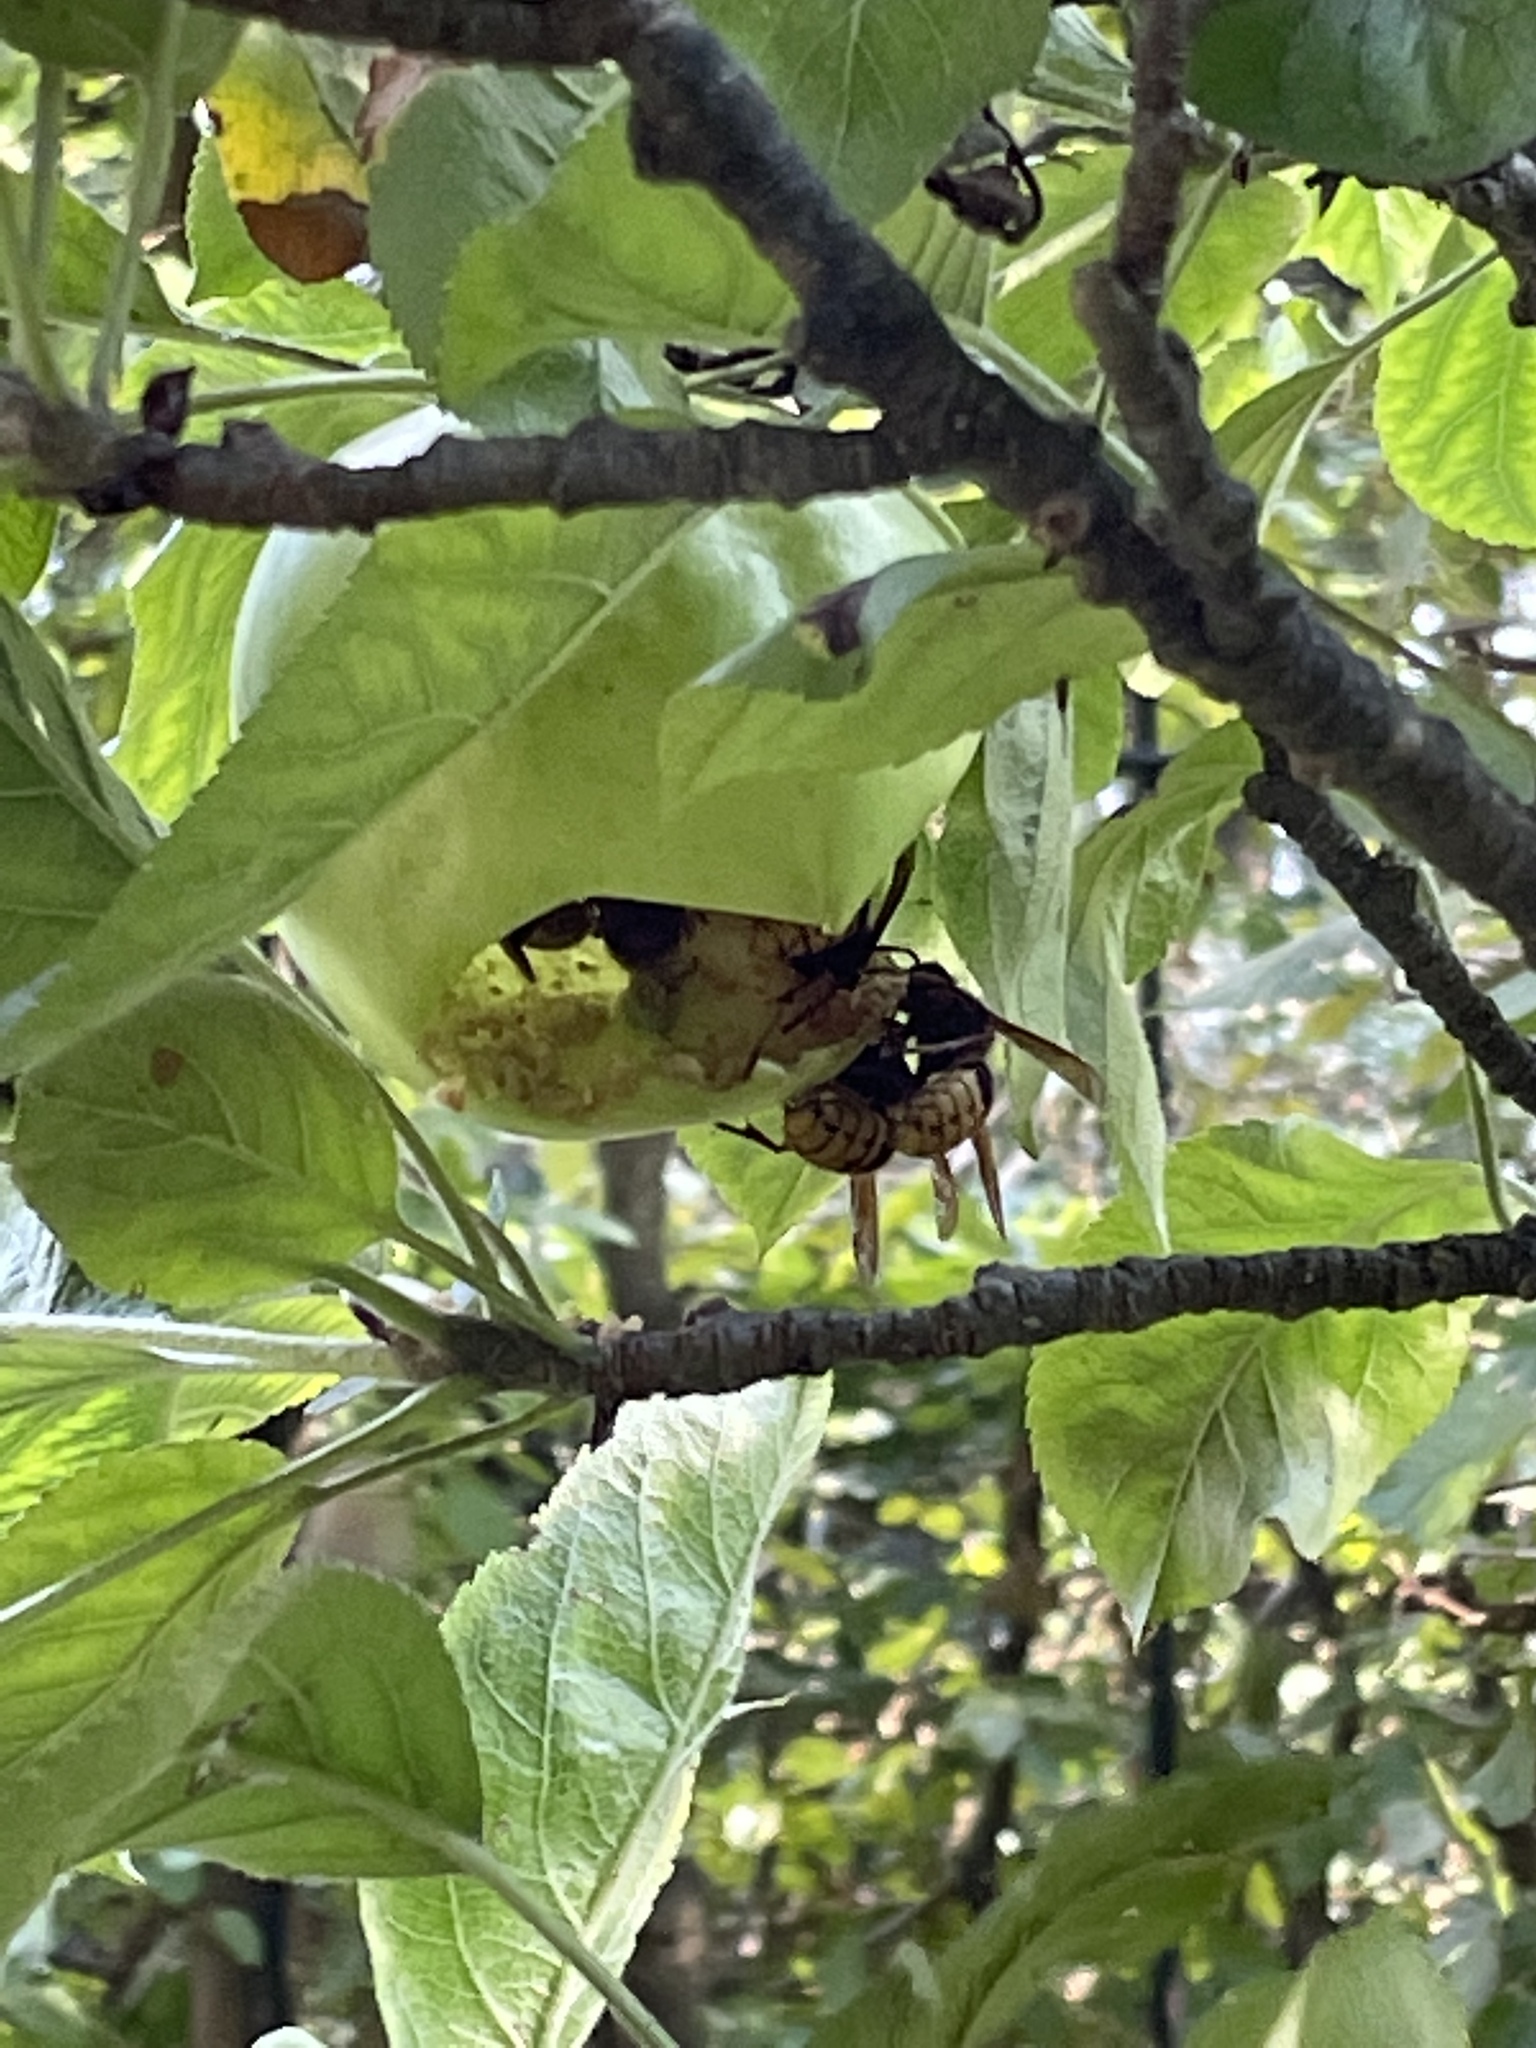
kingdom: Animalia
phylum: Arthropoda
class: Insecta
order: Hymenoptera
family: Vespidae
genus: Vespa
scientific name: Vespa crabro
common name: Hornet
